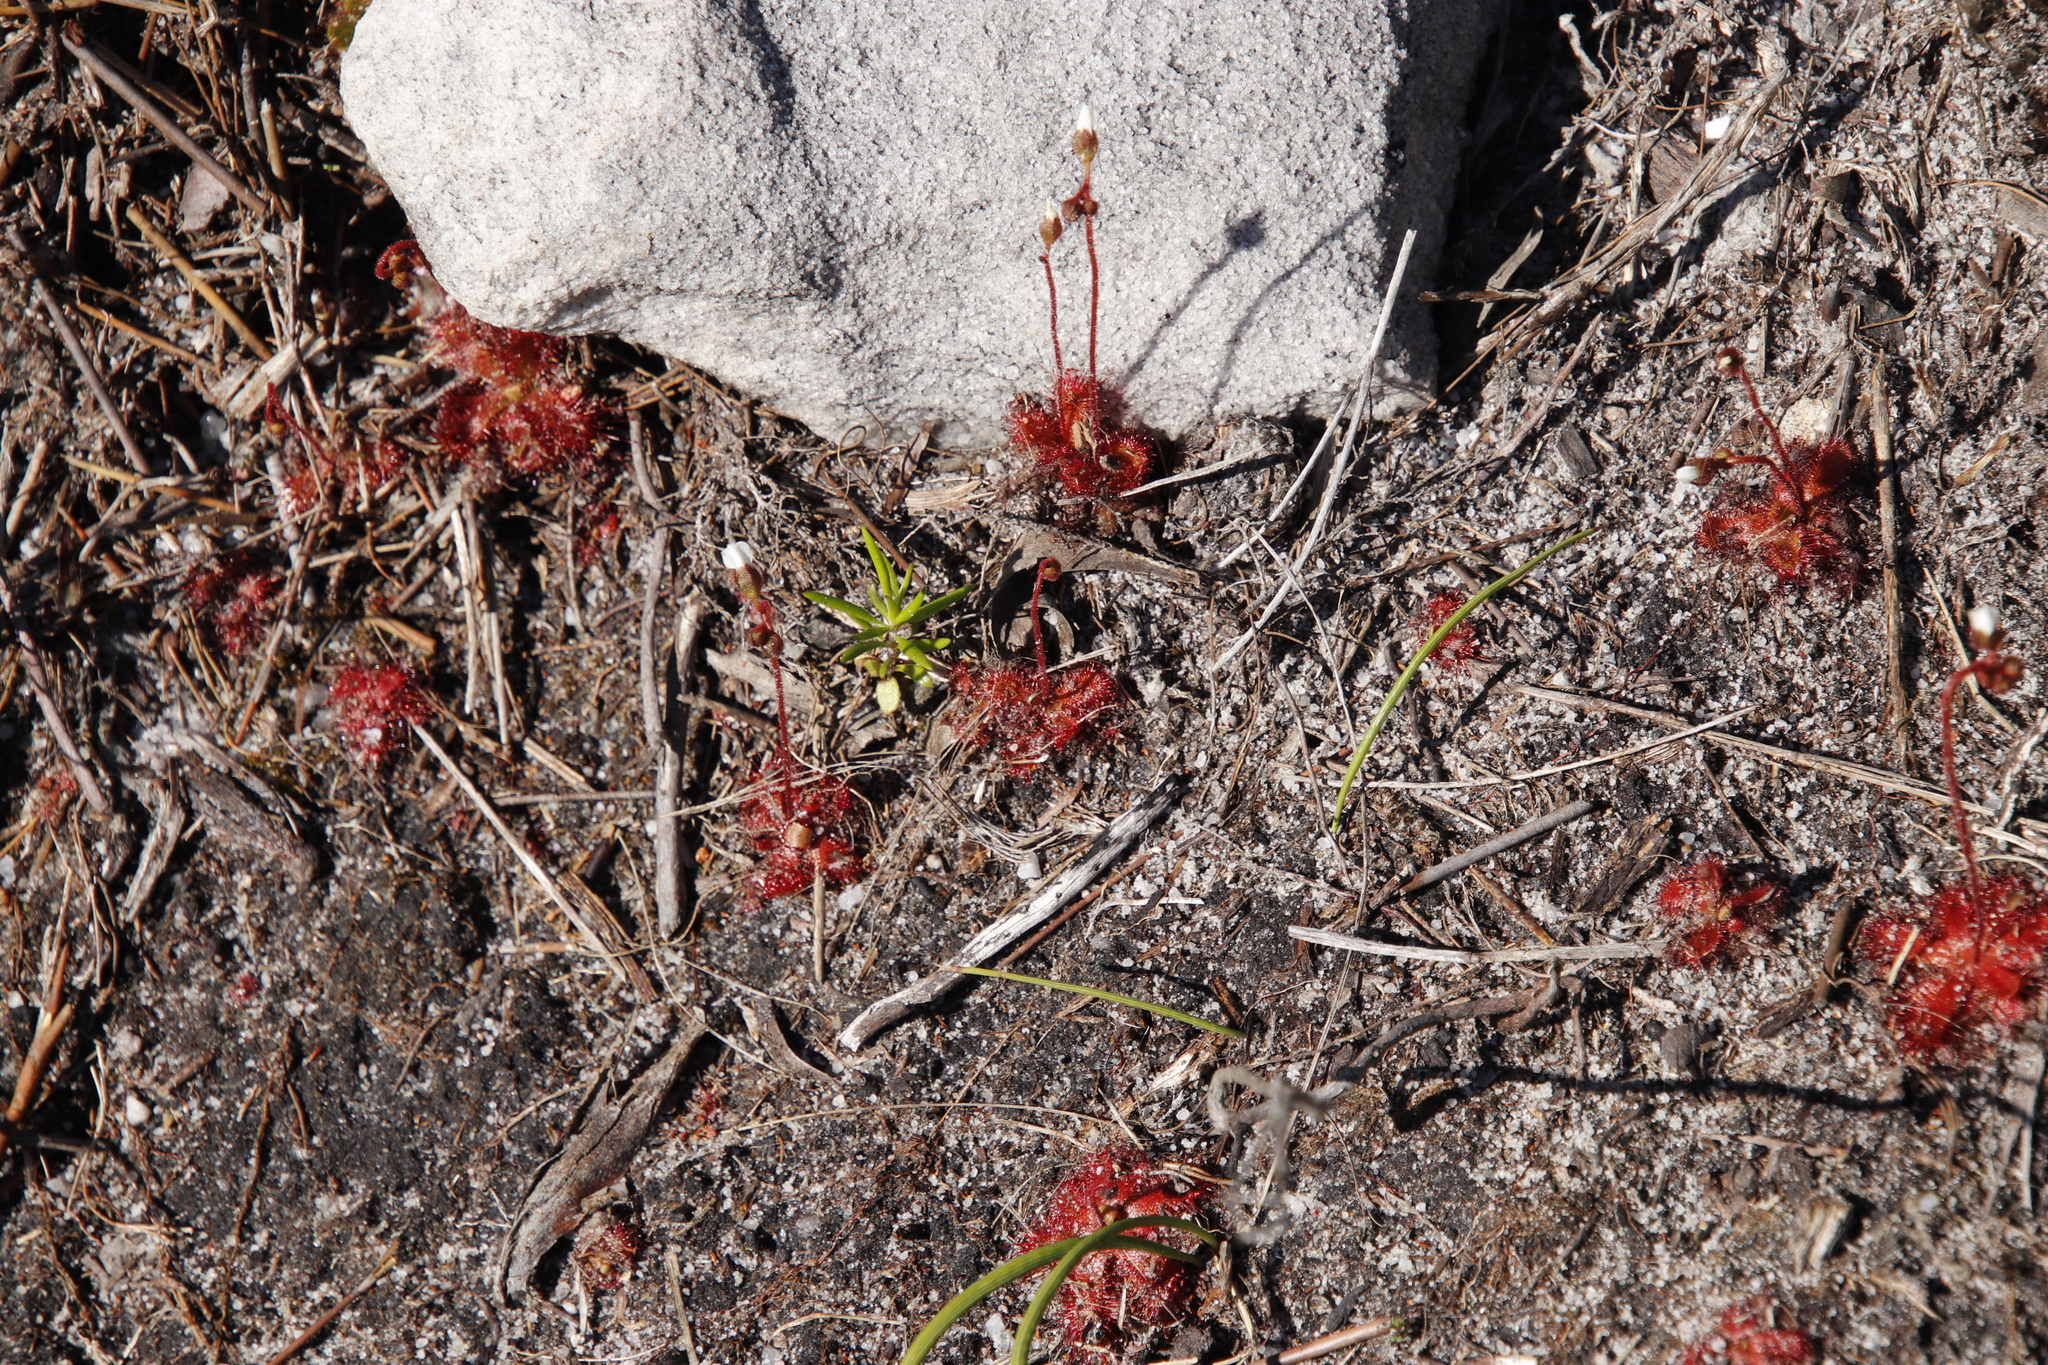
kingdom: Plantae
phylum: Tracheophyta
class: Magnoliopsida
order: Caryophyllales
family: Droseraceae
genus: Drosera
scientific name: Drosera trinervia
